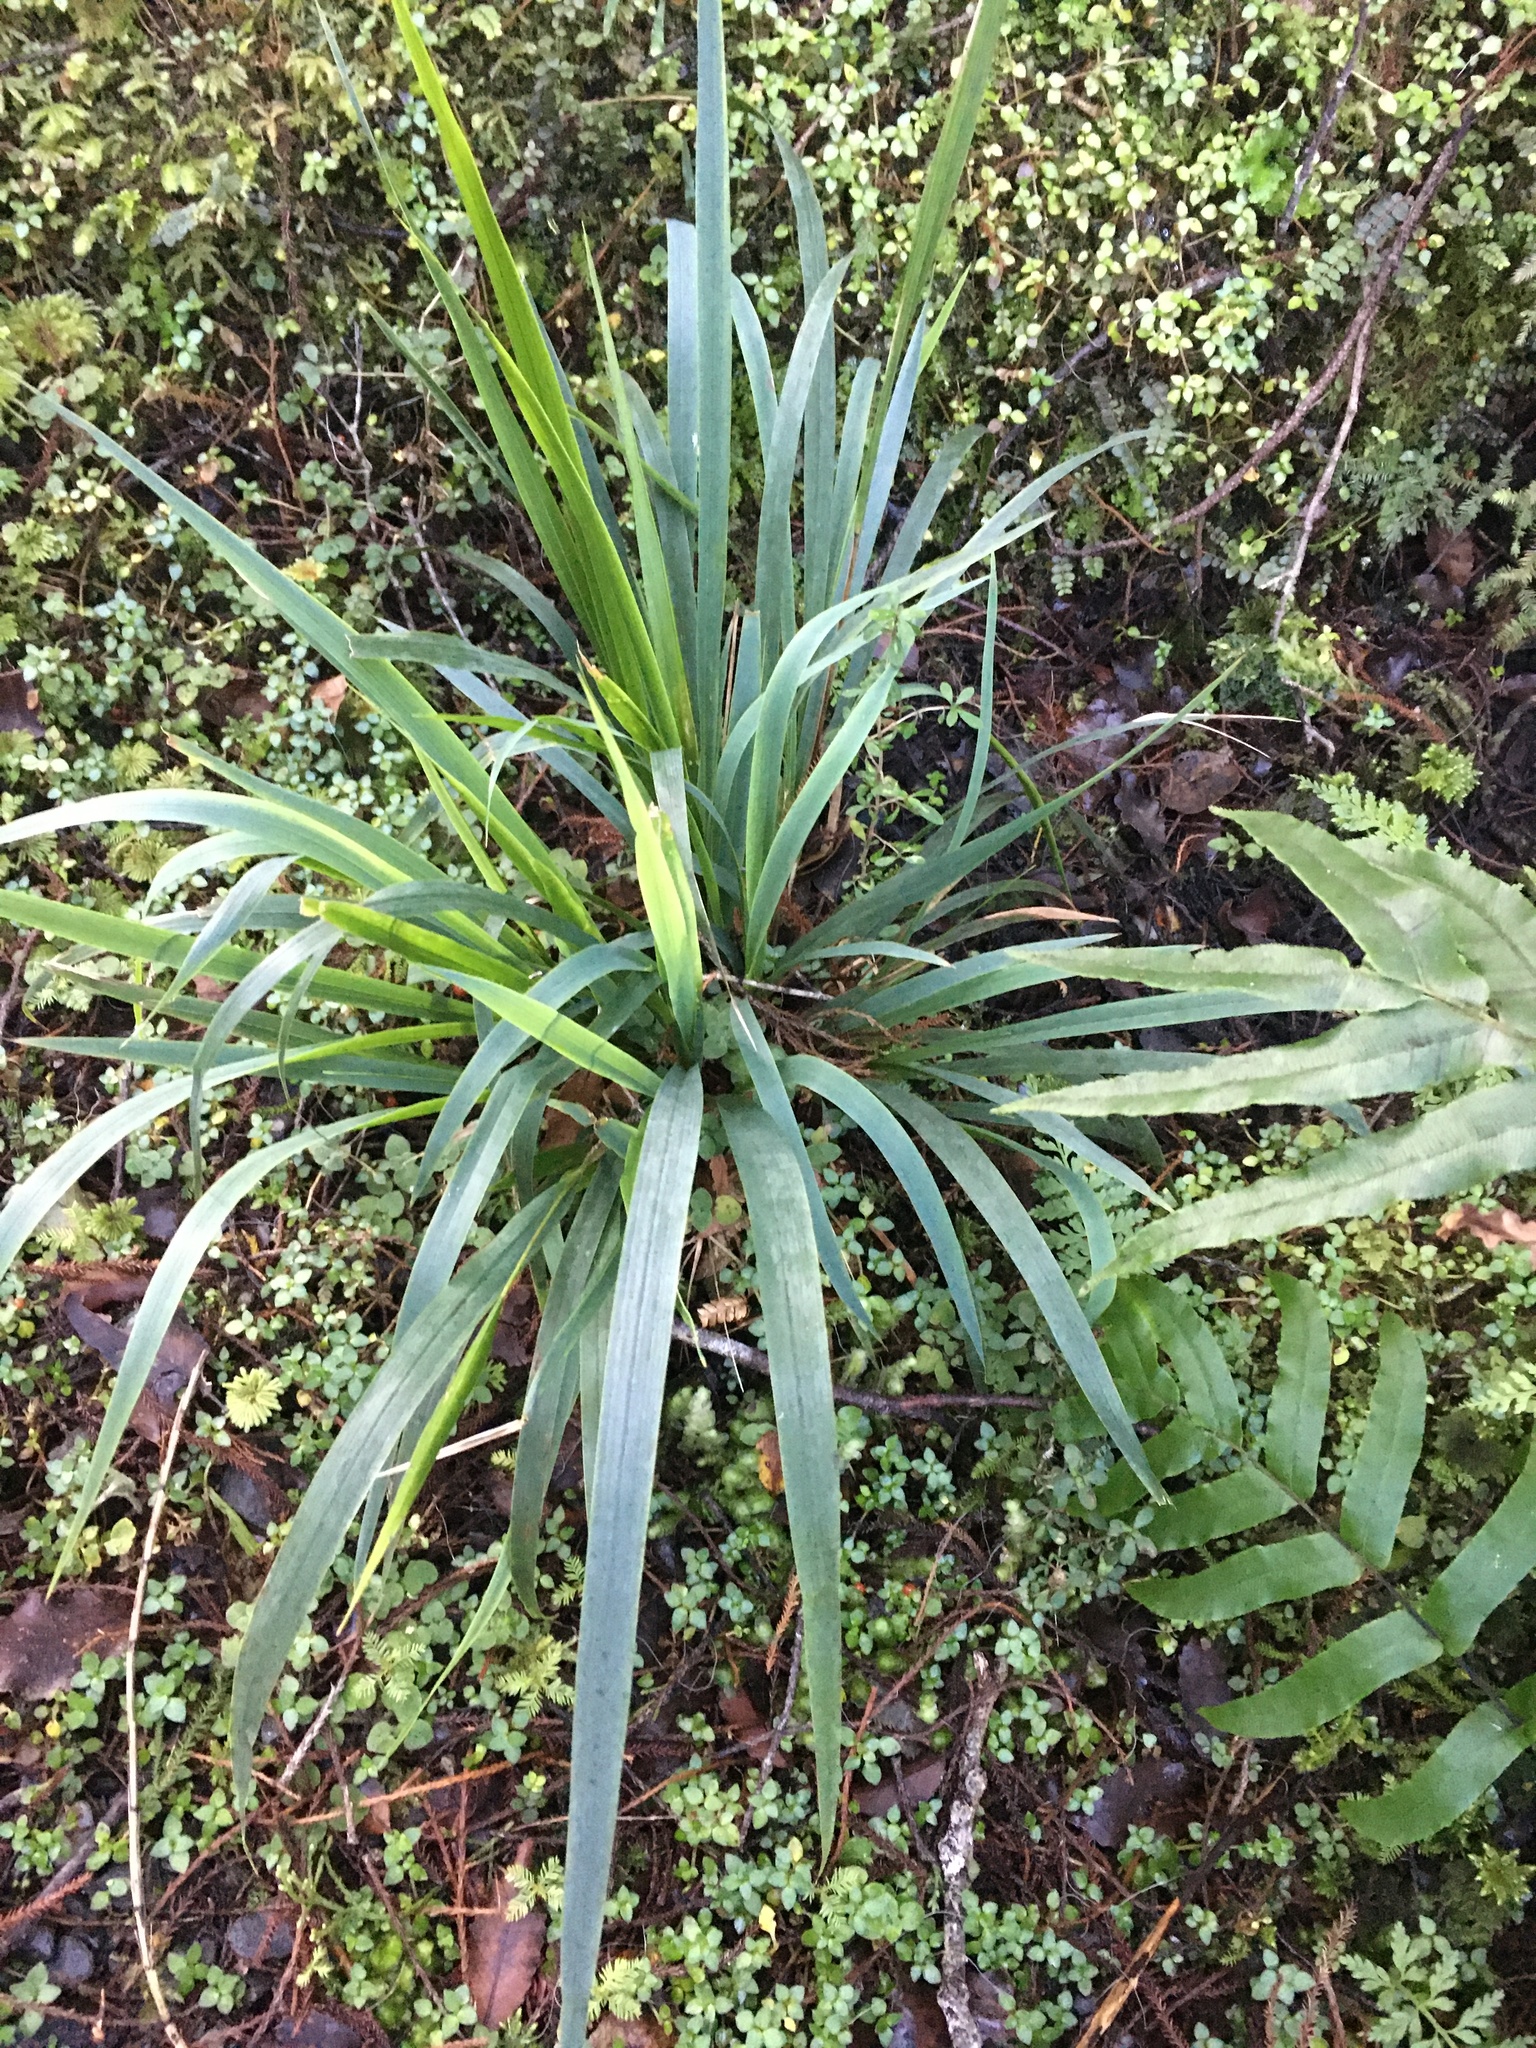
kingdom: Plantae
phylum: Tracheophyta
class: Liliopsida
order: Poales
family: Poaceae
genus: Ehrharta
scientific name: Ehrharta diplax
